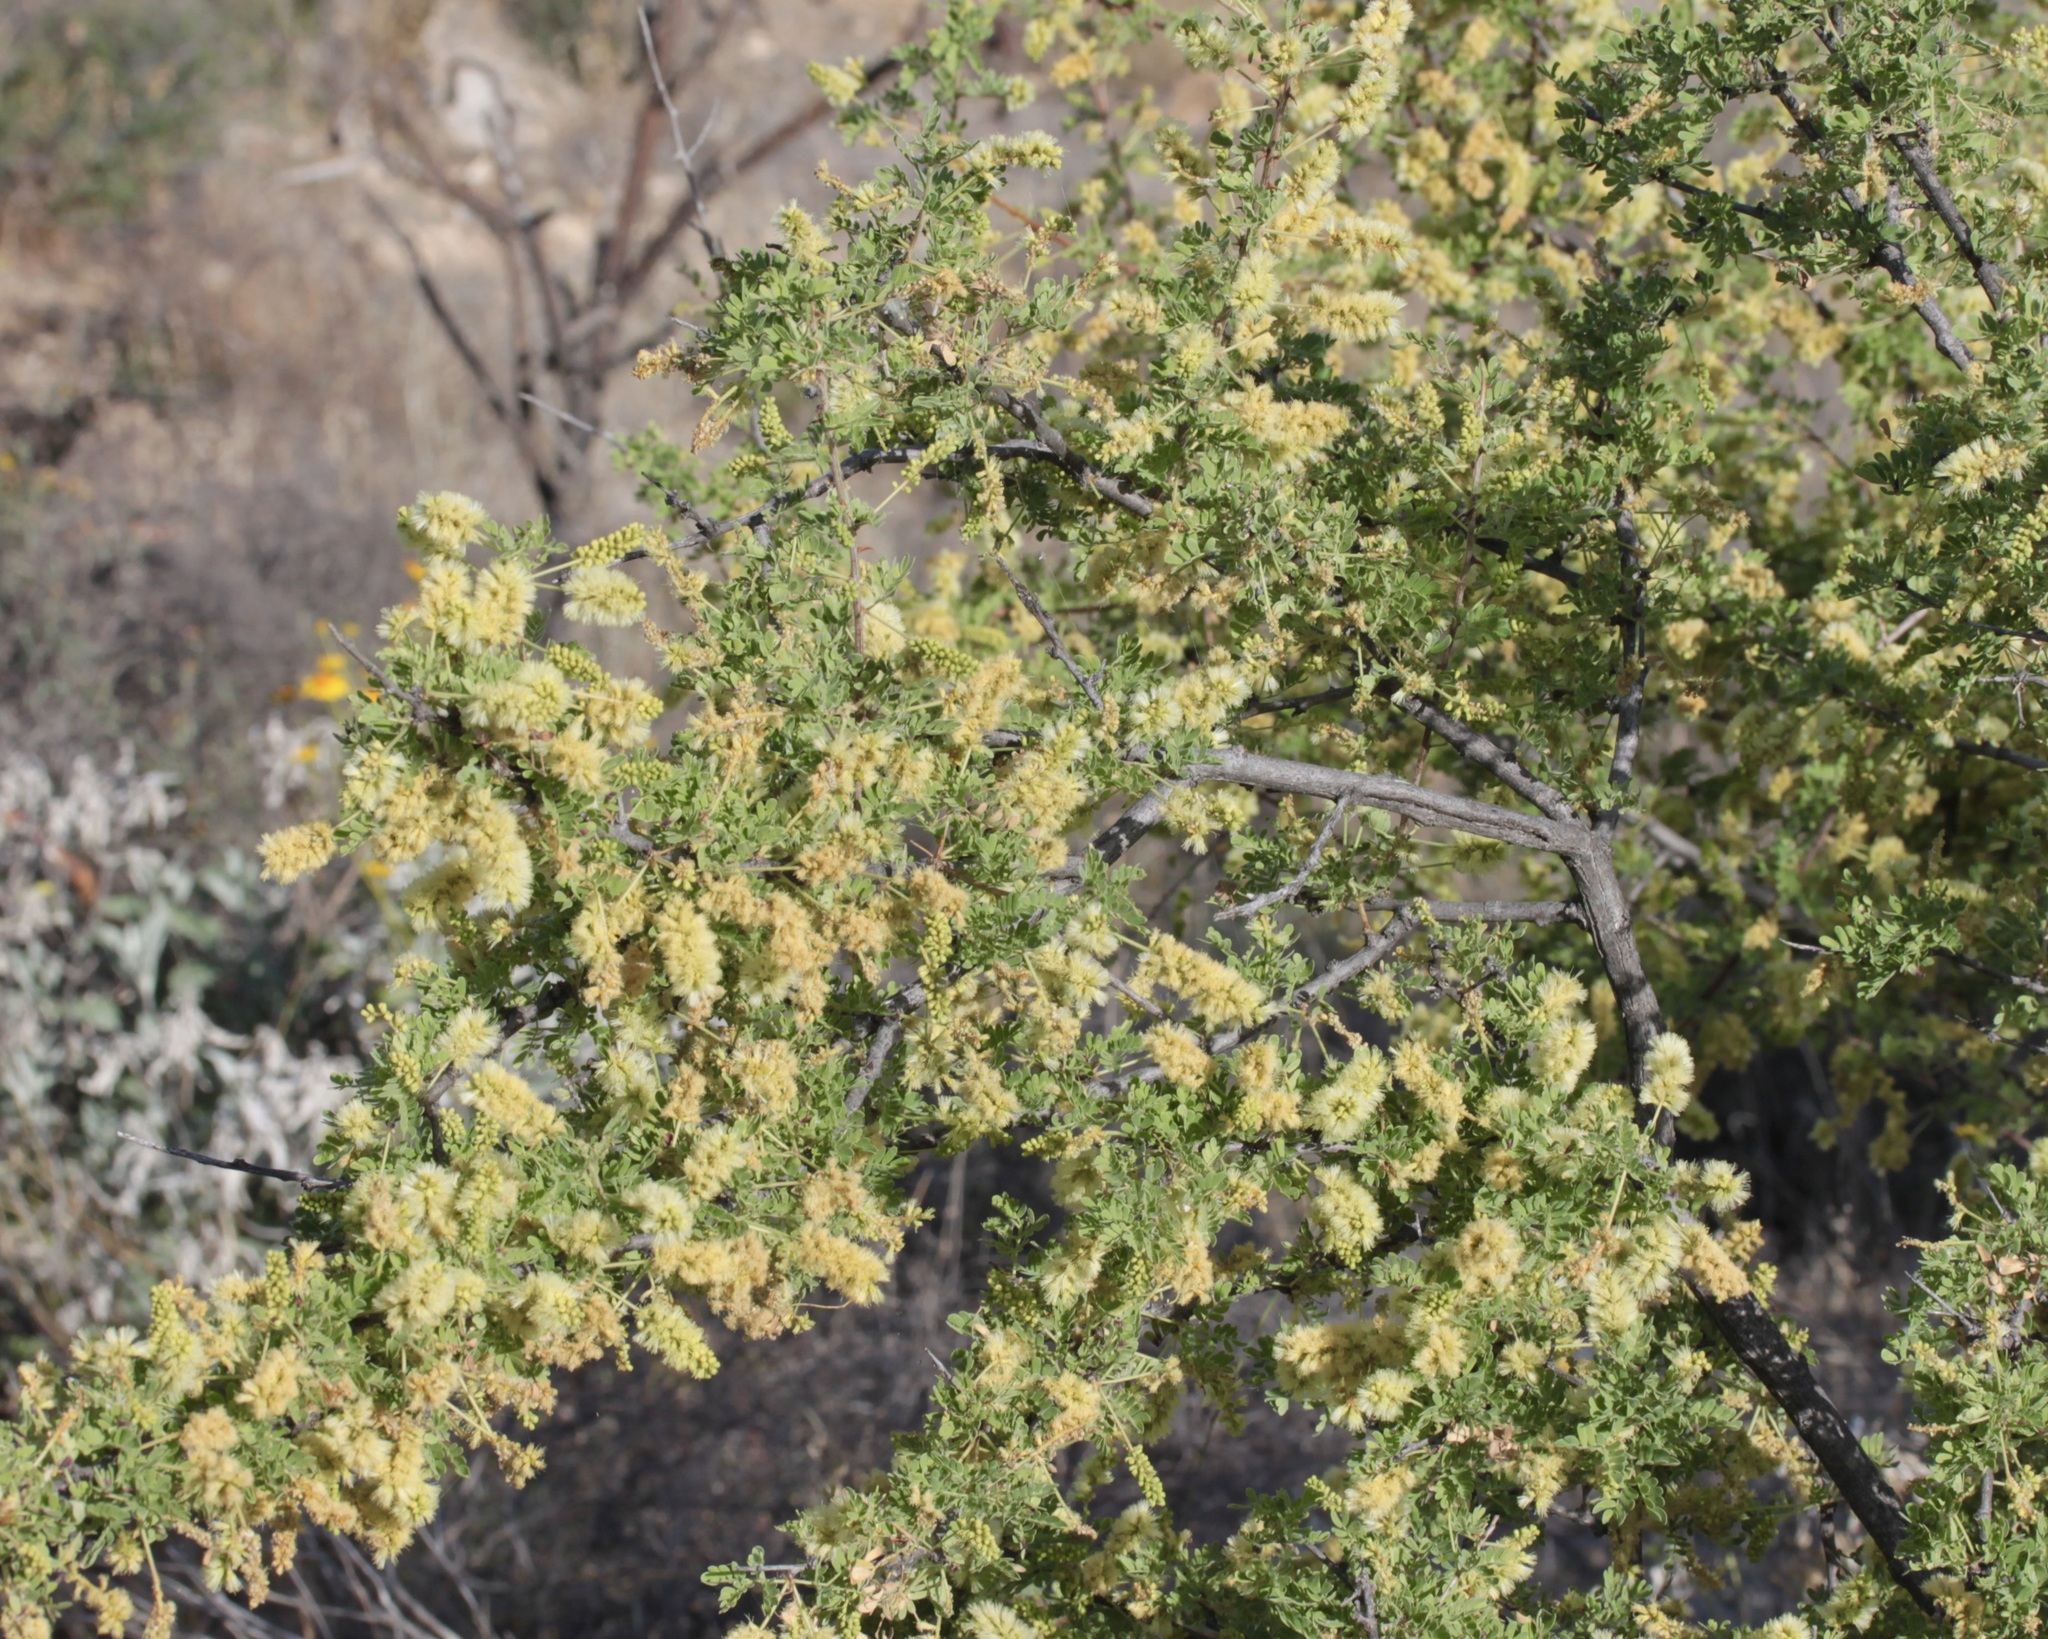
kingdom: Plantae
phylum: Tracheophyta
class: Magnoliopsida
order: Fabales
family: Fabaceae
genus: Senegalia
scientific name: Senegalia greggii
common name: Texas-mimosa
